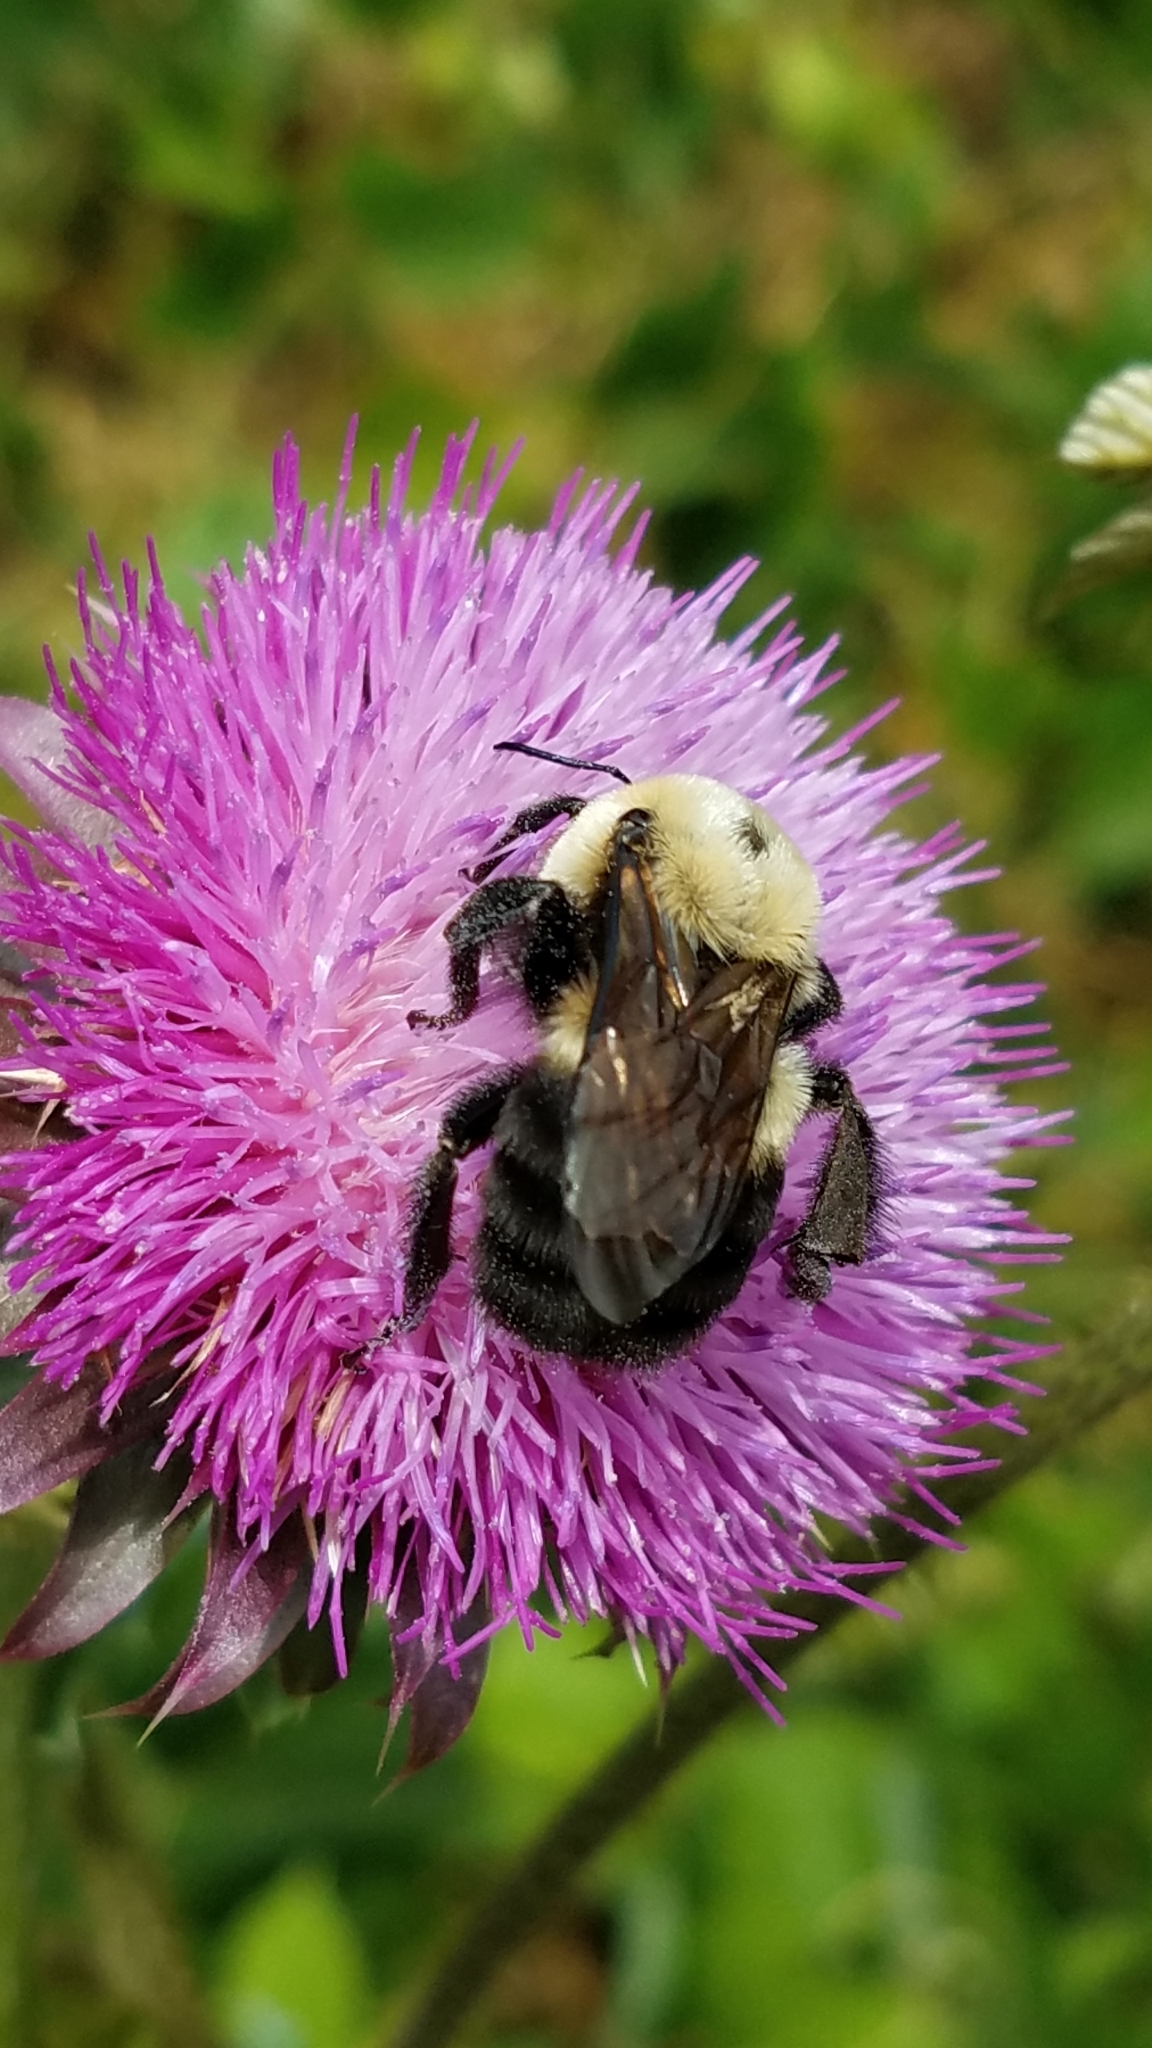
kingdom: Animalia
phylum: Arthropoda
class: Insecta
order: Hymenoptera
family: Apidae
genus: Bombus
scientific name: Bombus griseocollis
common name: Brown-belted bumble bee
